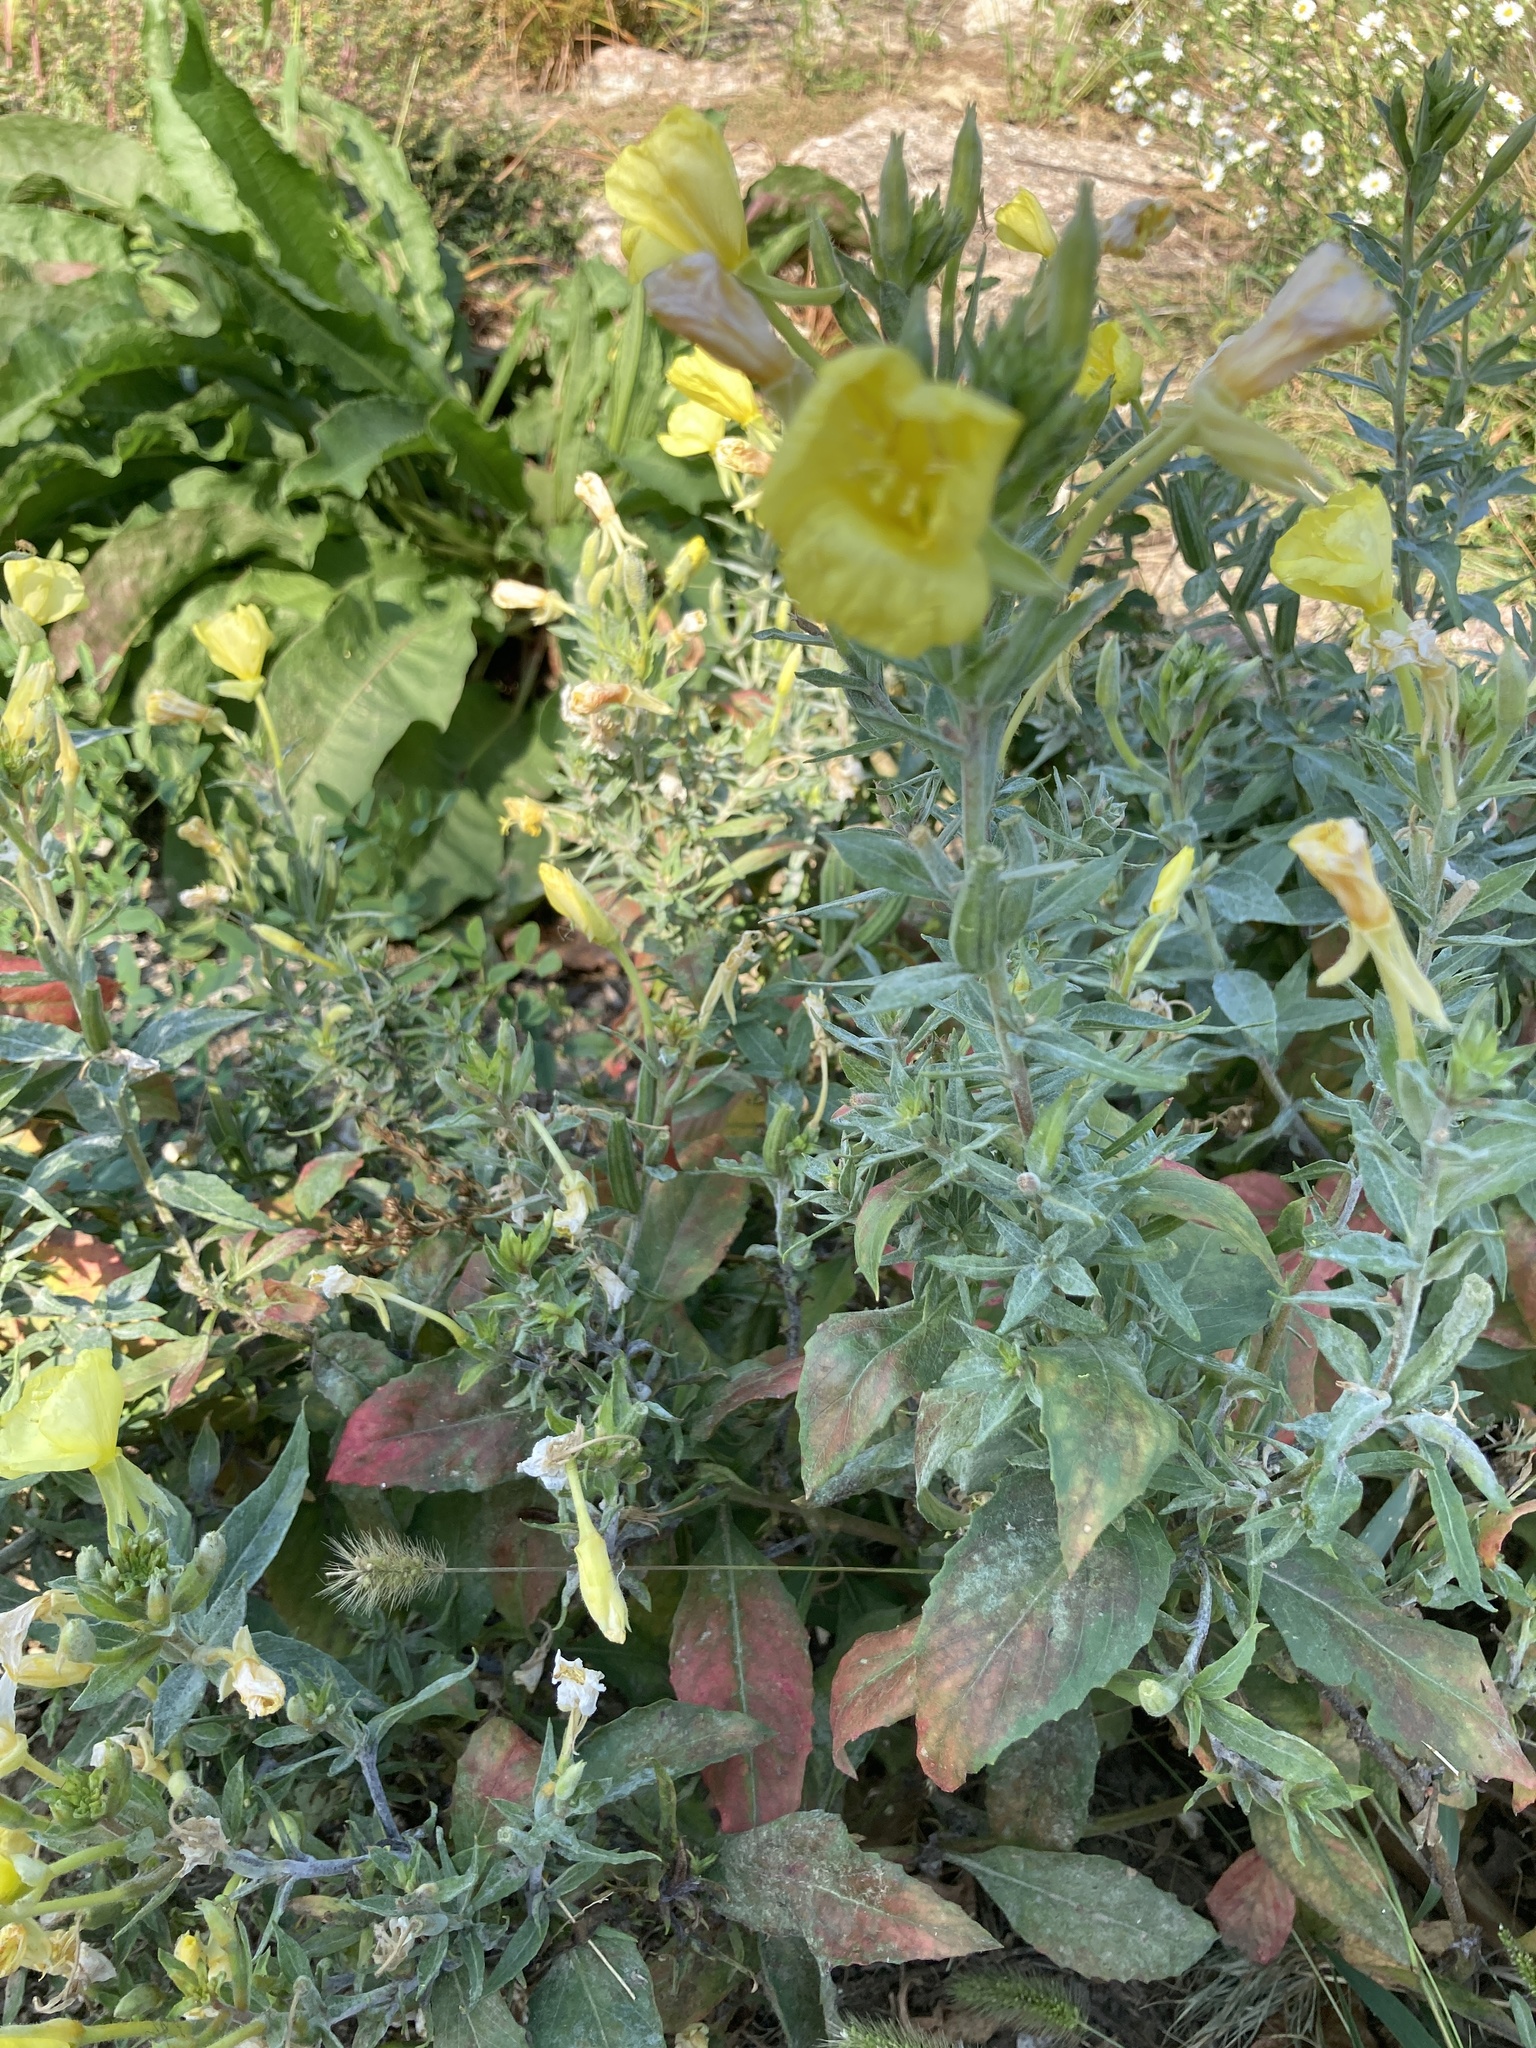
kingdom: Plantae
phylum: Tracheophyta
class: Magnoliopsida
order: Myrtales
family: Onagraceae
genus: Oenothera
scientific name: Oenothera biennis
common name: Common evening-primrose
